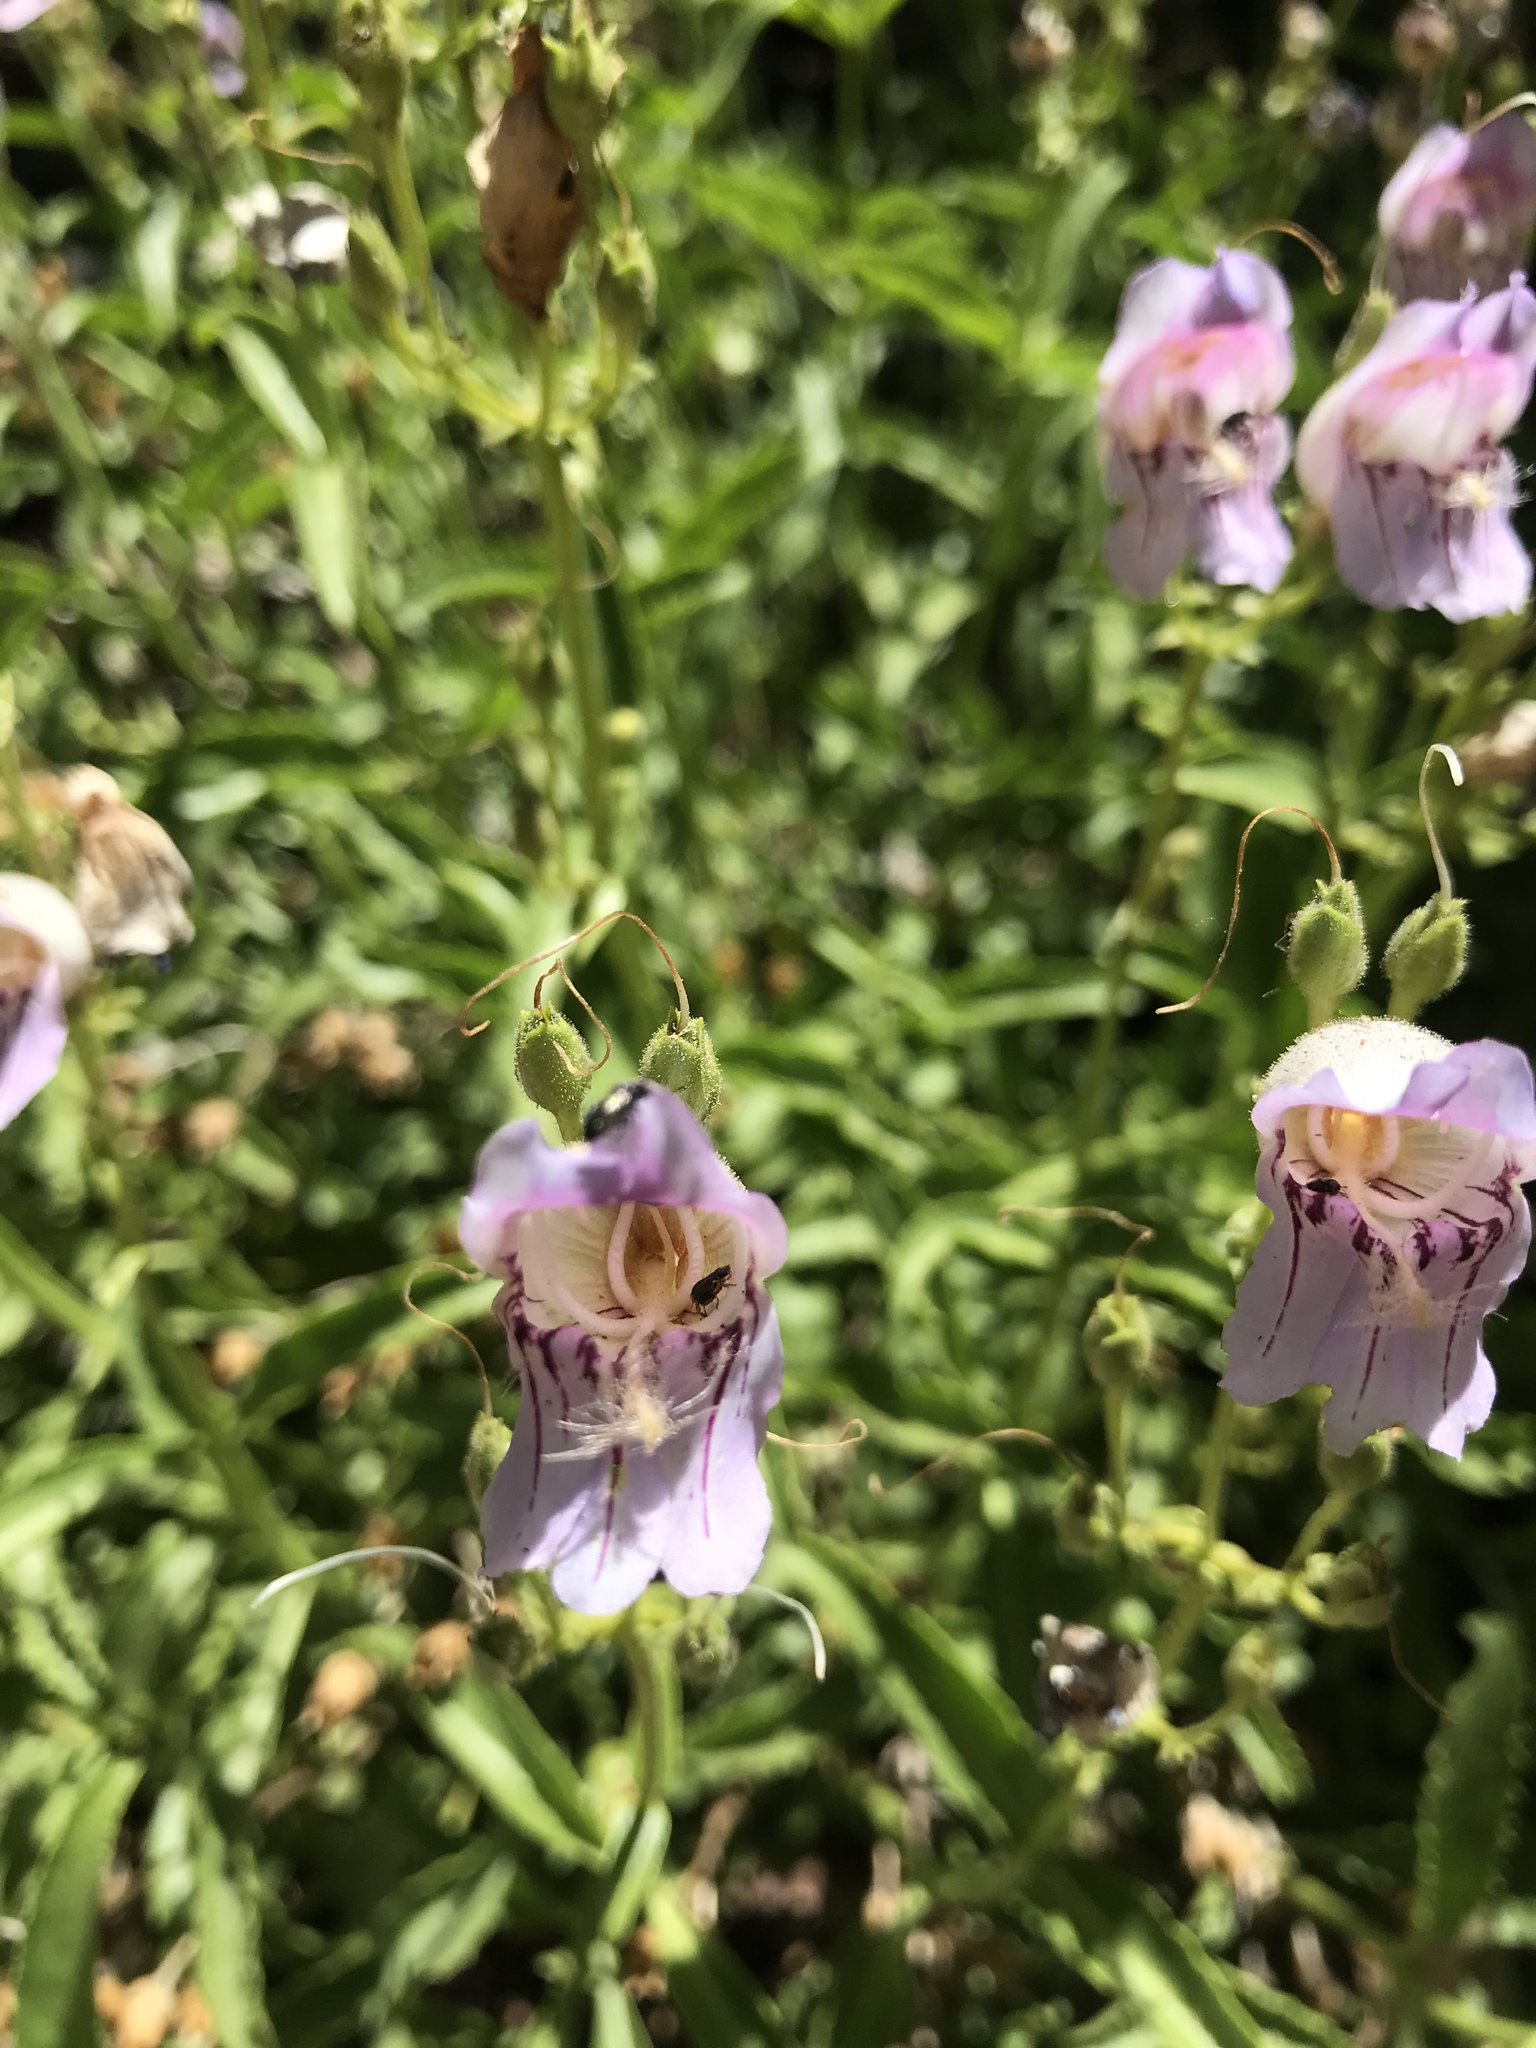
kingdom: Plantae
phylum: Tracheophyta
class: Magnoliopsida
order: Lamiales
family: Plantaginaceae
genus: Penstemon
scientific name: Penstemon grinnellii
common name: Grinnell's beardtongue
